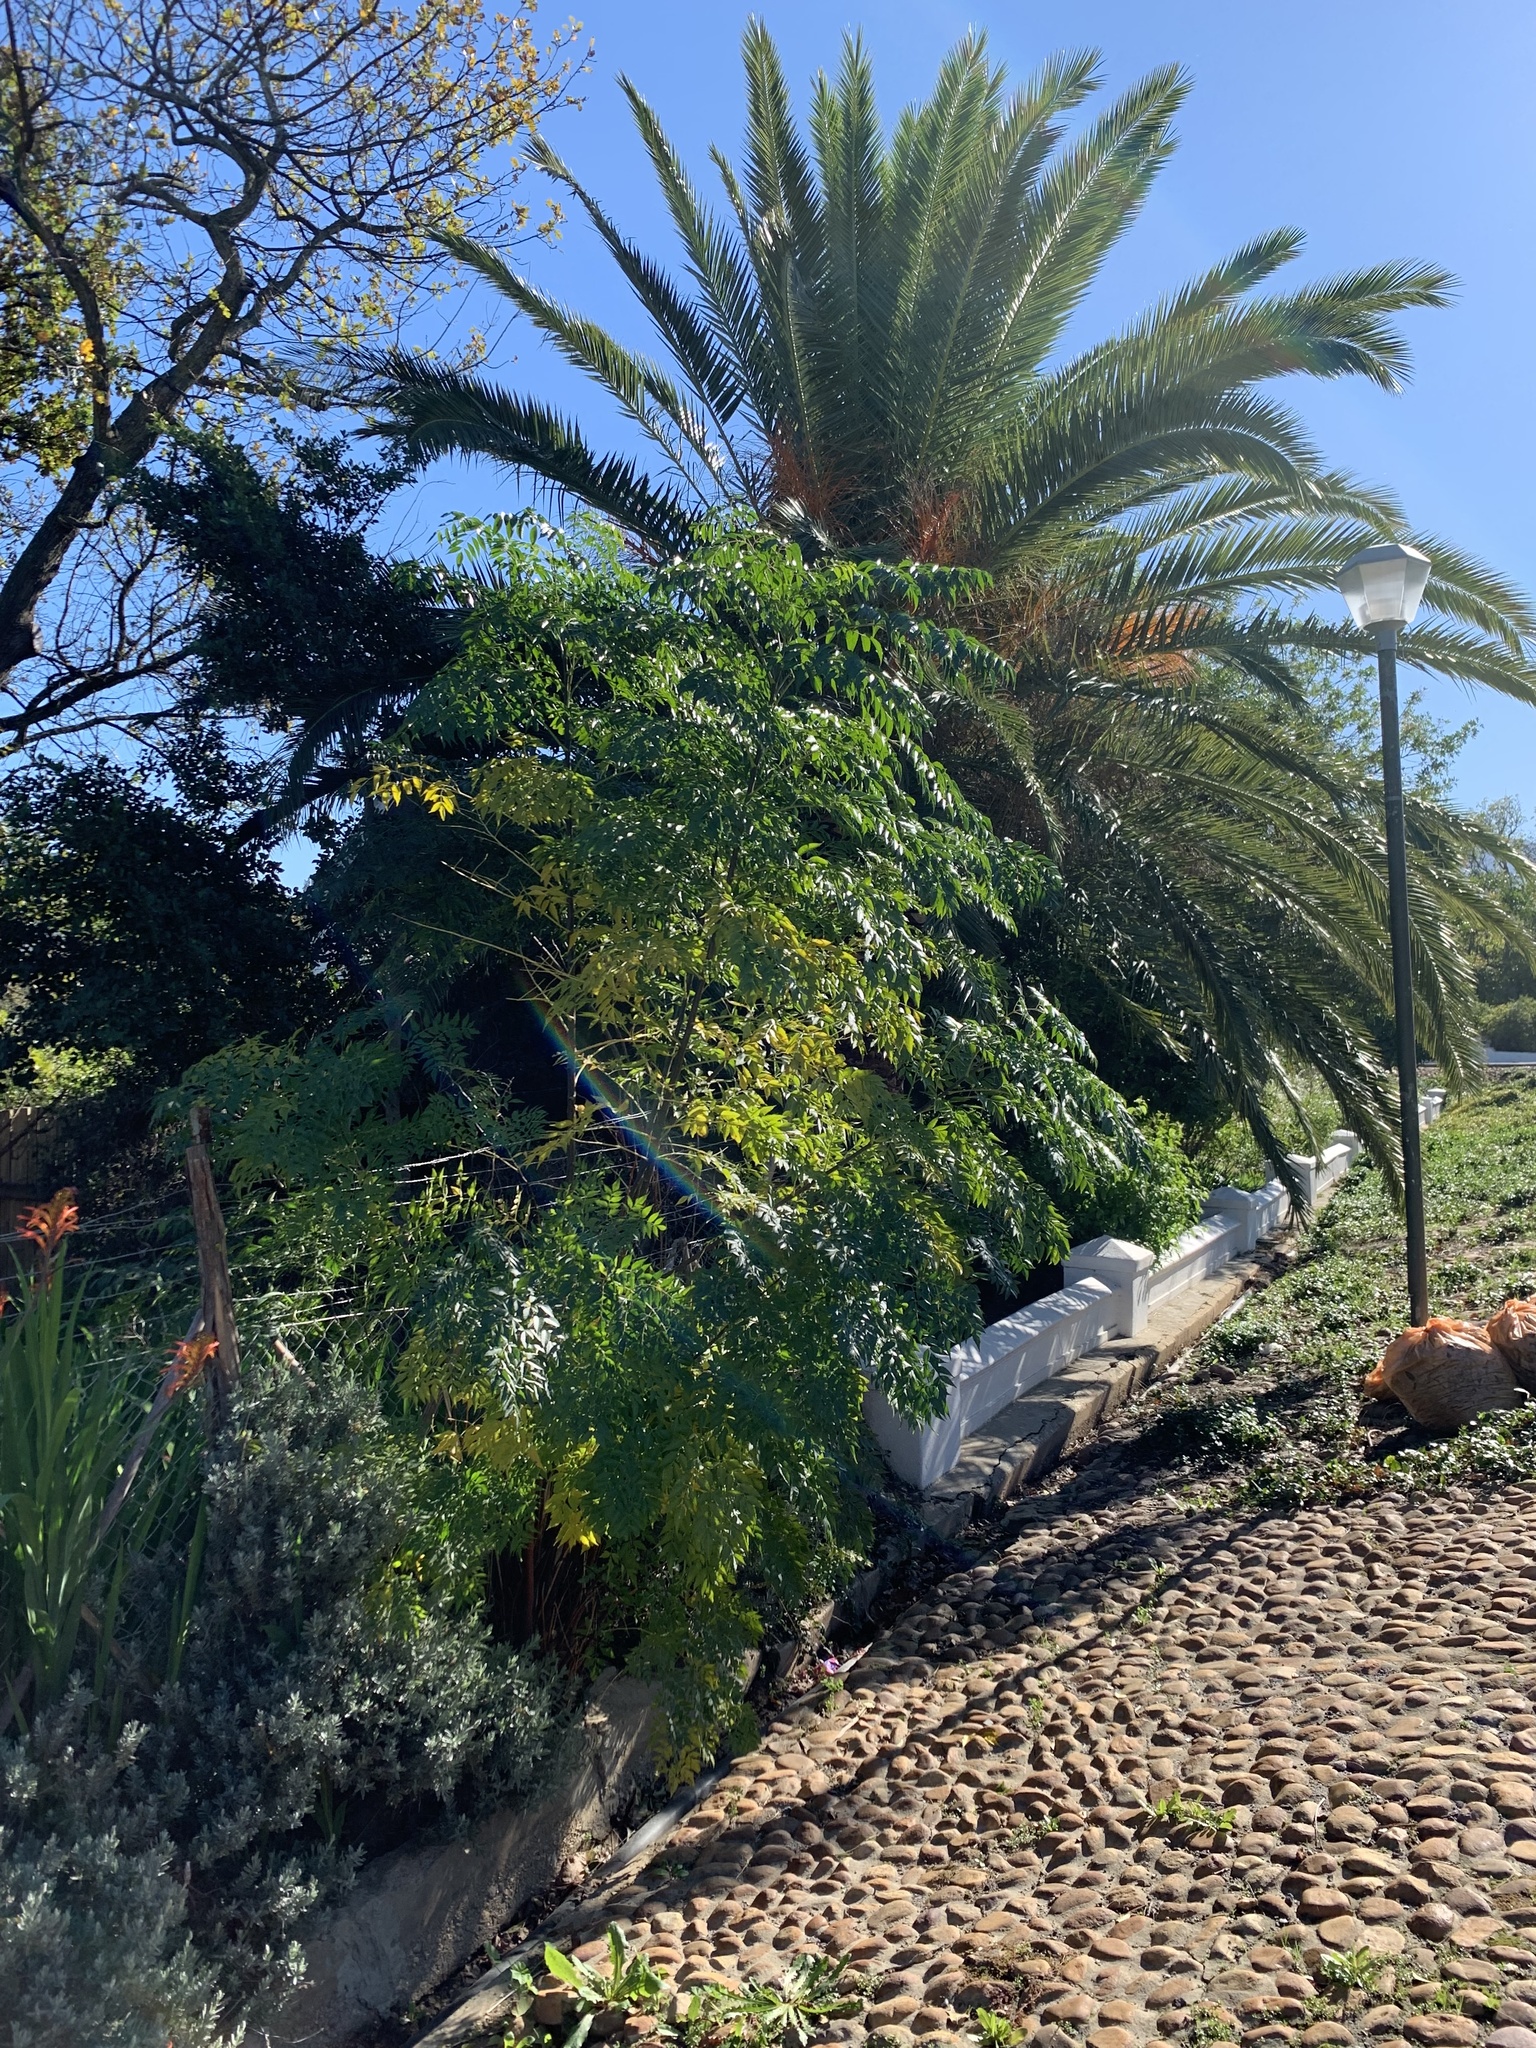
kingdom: Plantae
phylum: Tracheophyta
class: Magnoliopsida
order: Sapindales
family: Meliaceae
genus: Melia
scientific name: Melia azedarach
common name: Chinaberrytree
